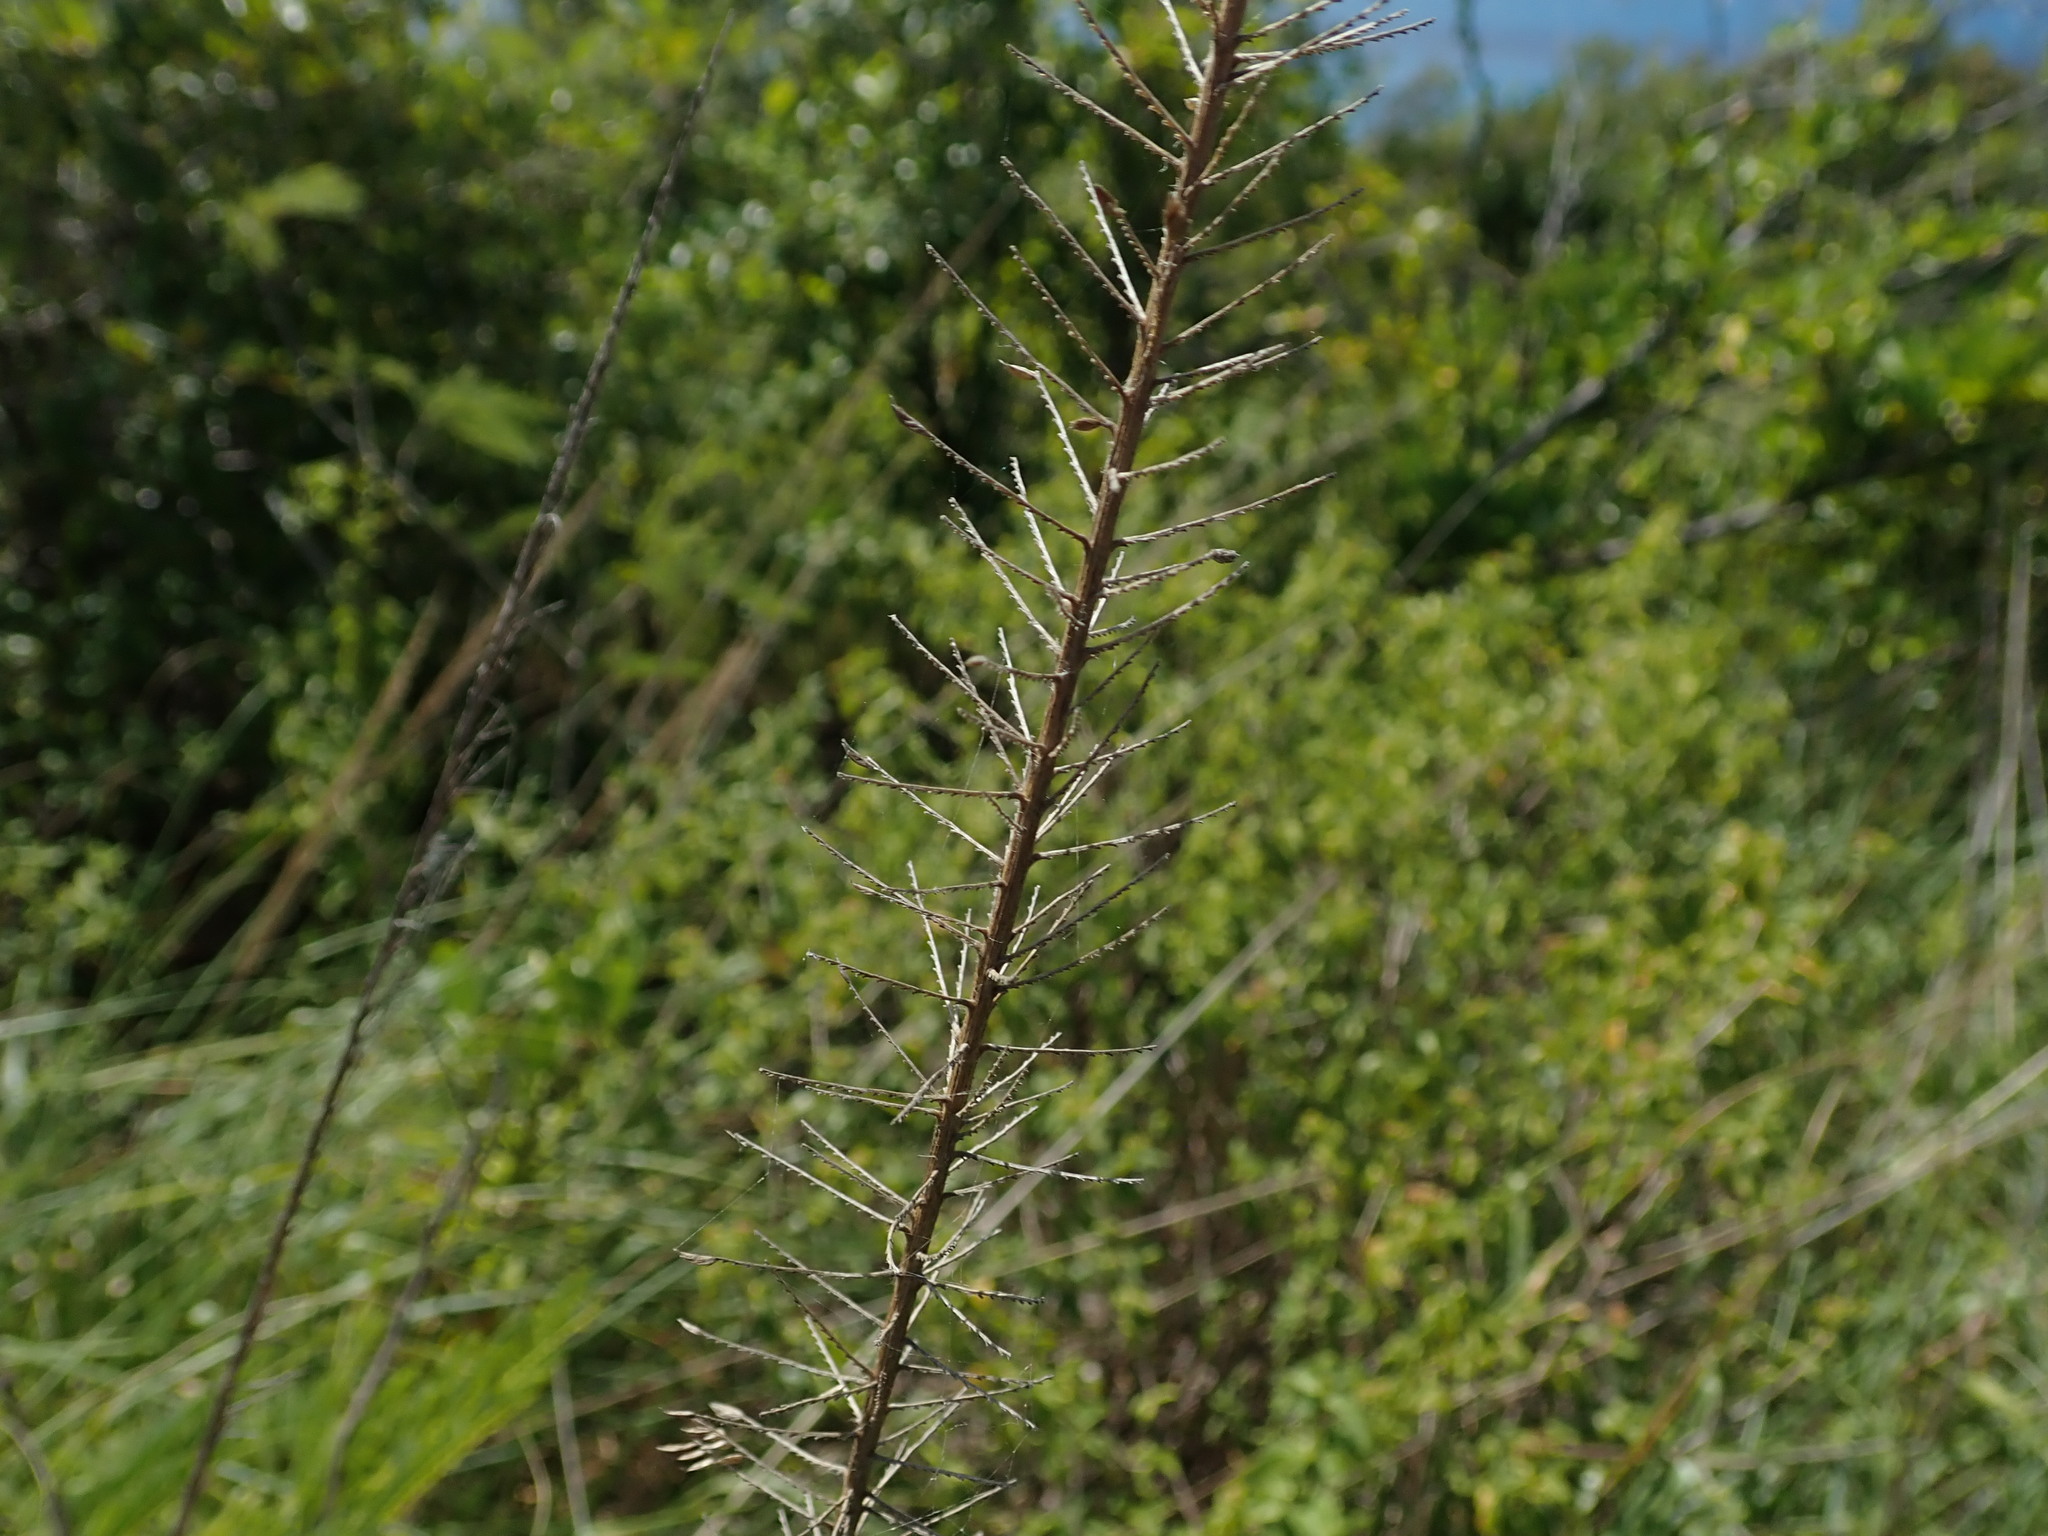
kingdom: Plantae
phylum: Tracheophyta
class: Liliopsida
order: Poales
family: Poaceae
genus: Uniola
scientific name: Uniola virgata
